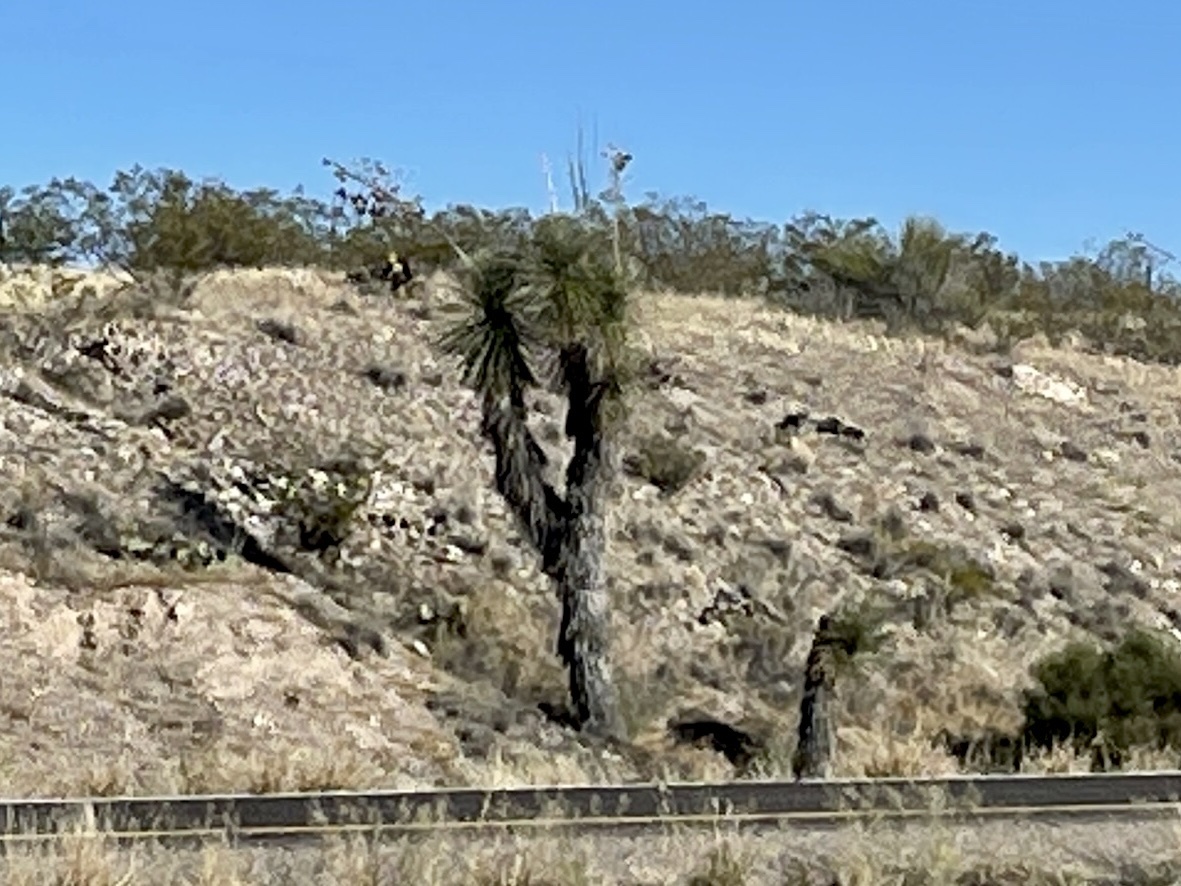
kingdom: Plantae
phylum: Tracheophyta
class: Liliopsida
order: Asparagales
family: Asparagaceae
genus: Yucca
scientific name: Yucca elata
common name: Palmella
